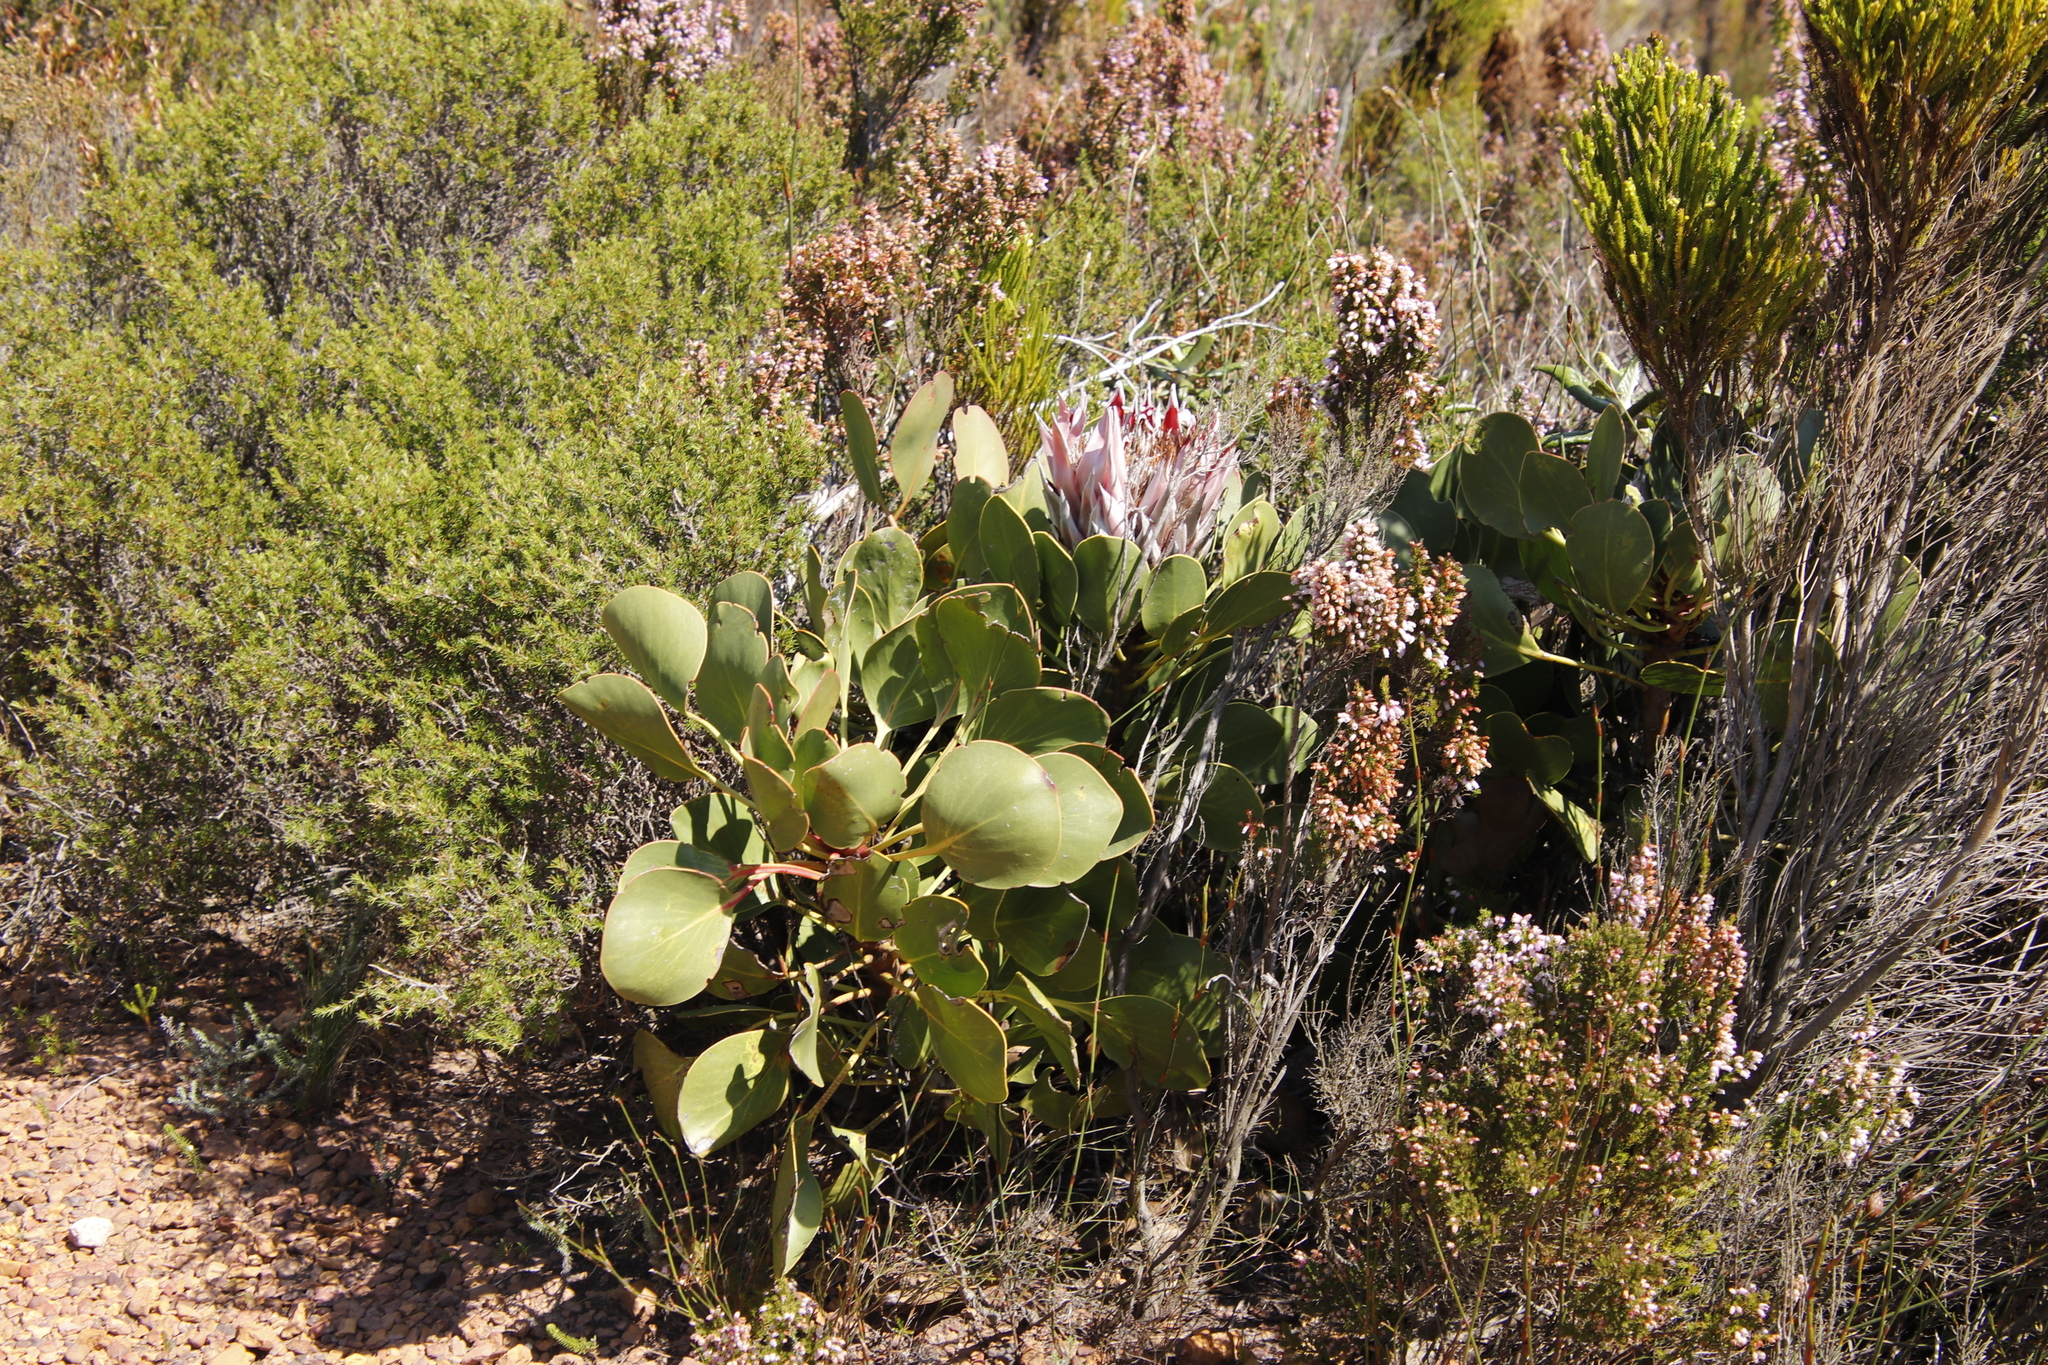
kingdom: Plantae
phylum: Tracheophyta
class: Magnoliopsida
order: Proteales
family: Proteaceae
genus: Protea
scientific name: Protea cynaroides
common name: King protea
